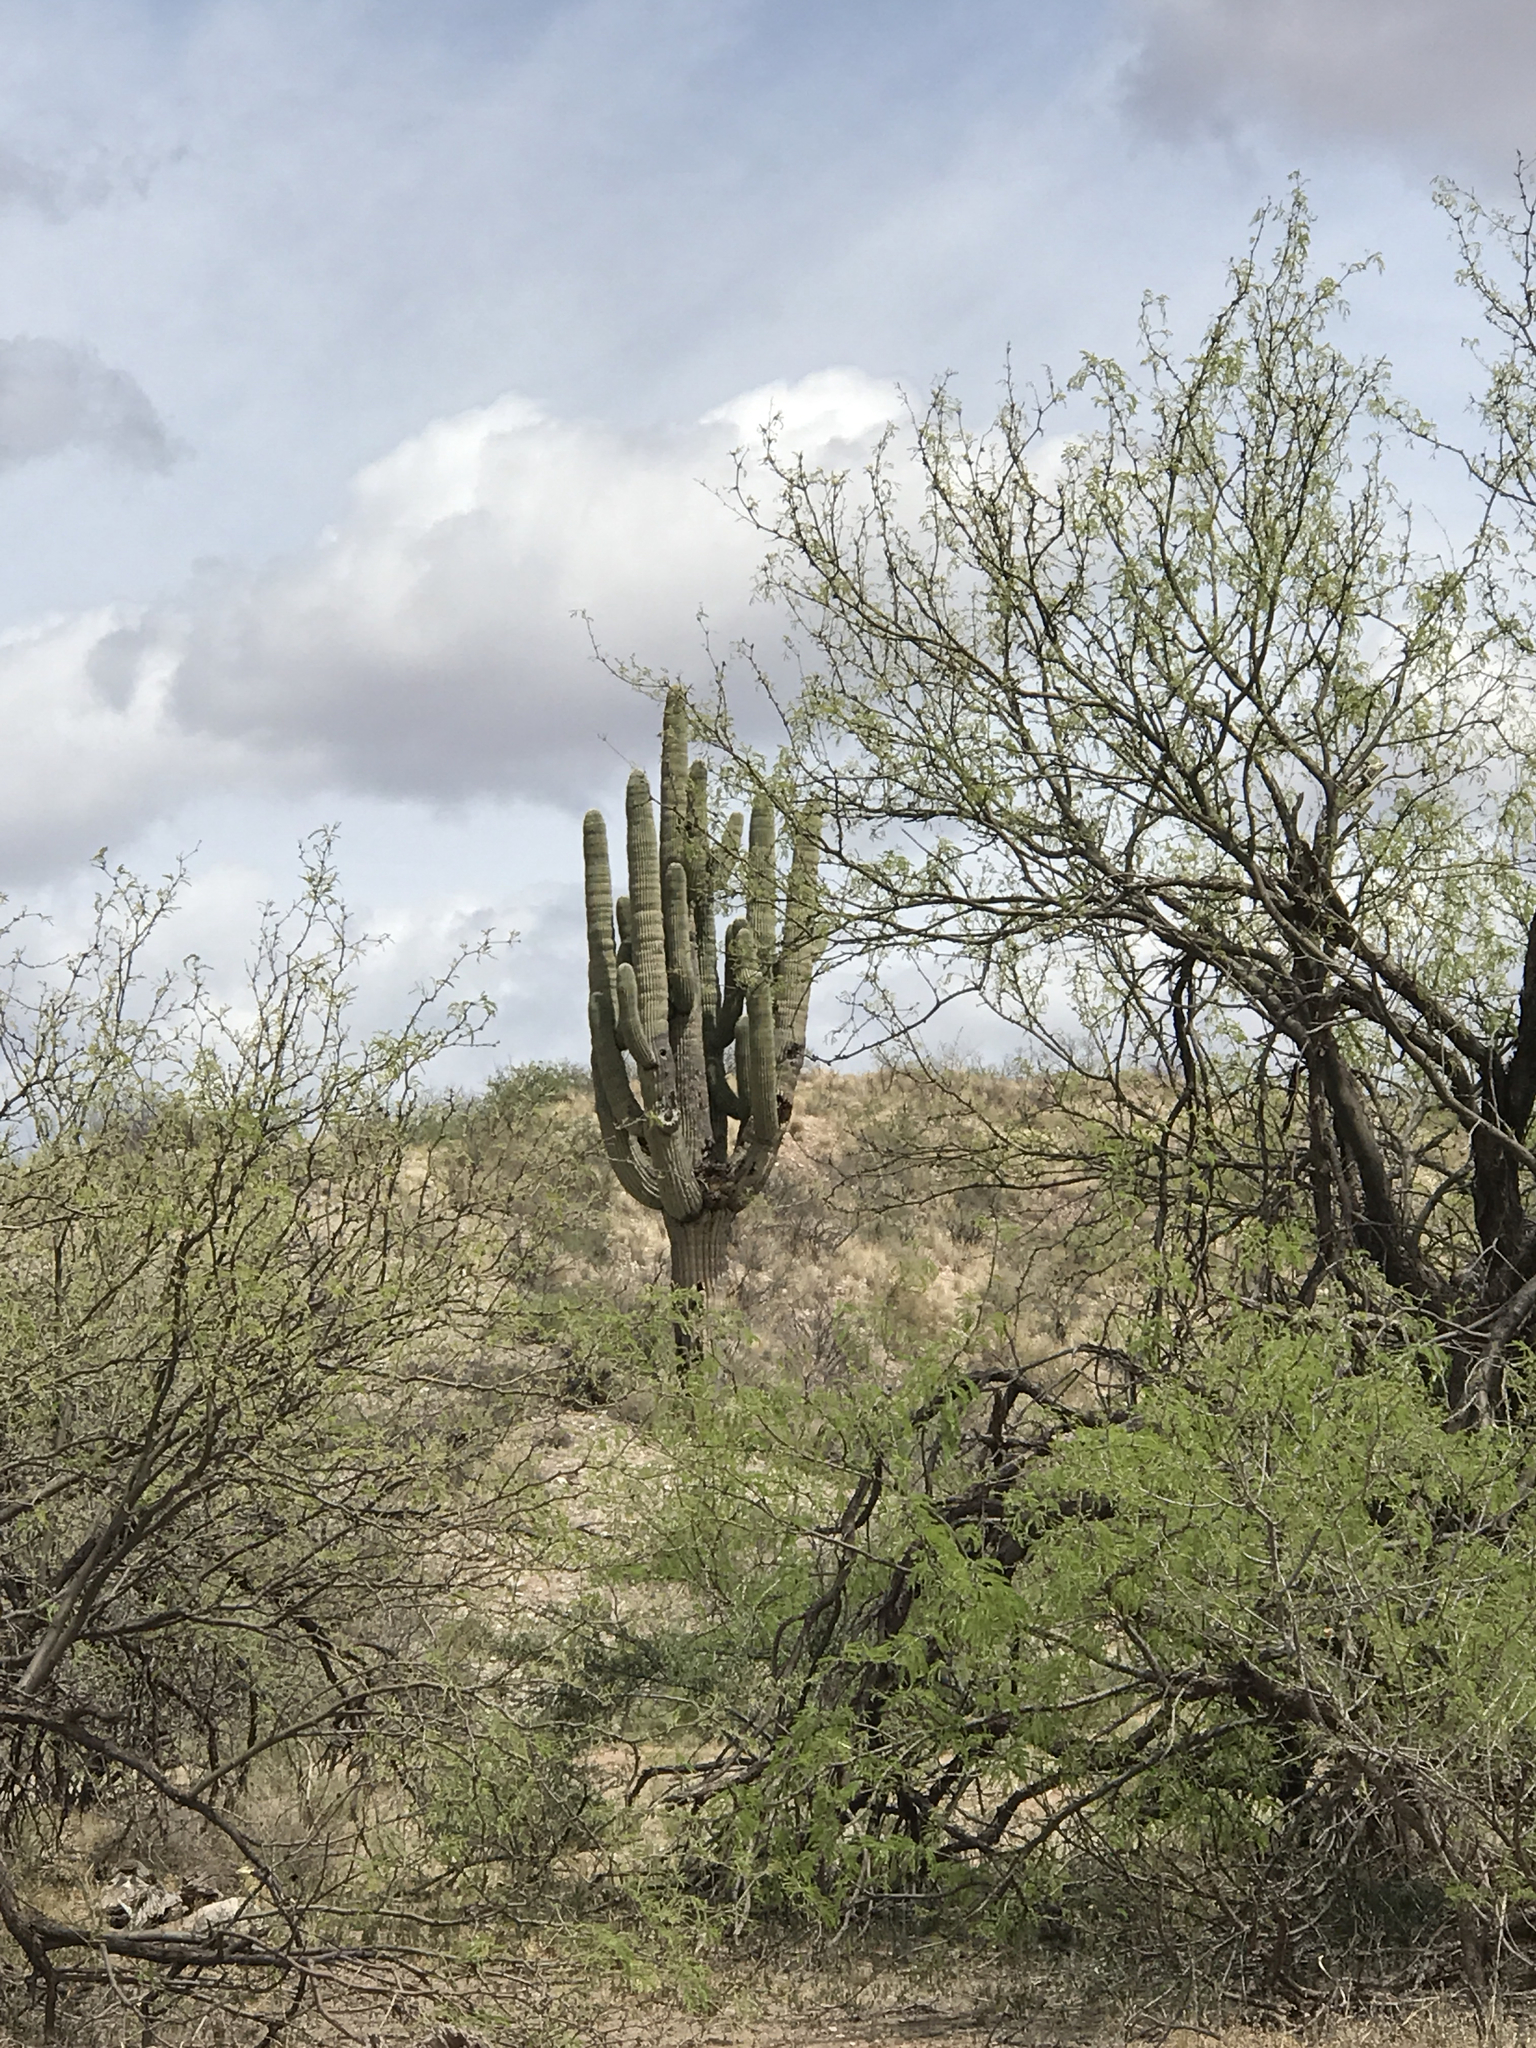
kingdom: Plantae
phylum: Tracheophyta
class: Magnoliopsida
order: Caryophyllales
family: Cactaceae
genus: Carnegiea
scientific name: Carnegiea gigantea
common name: Saguaro
